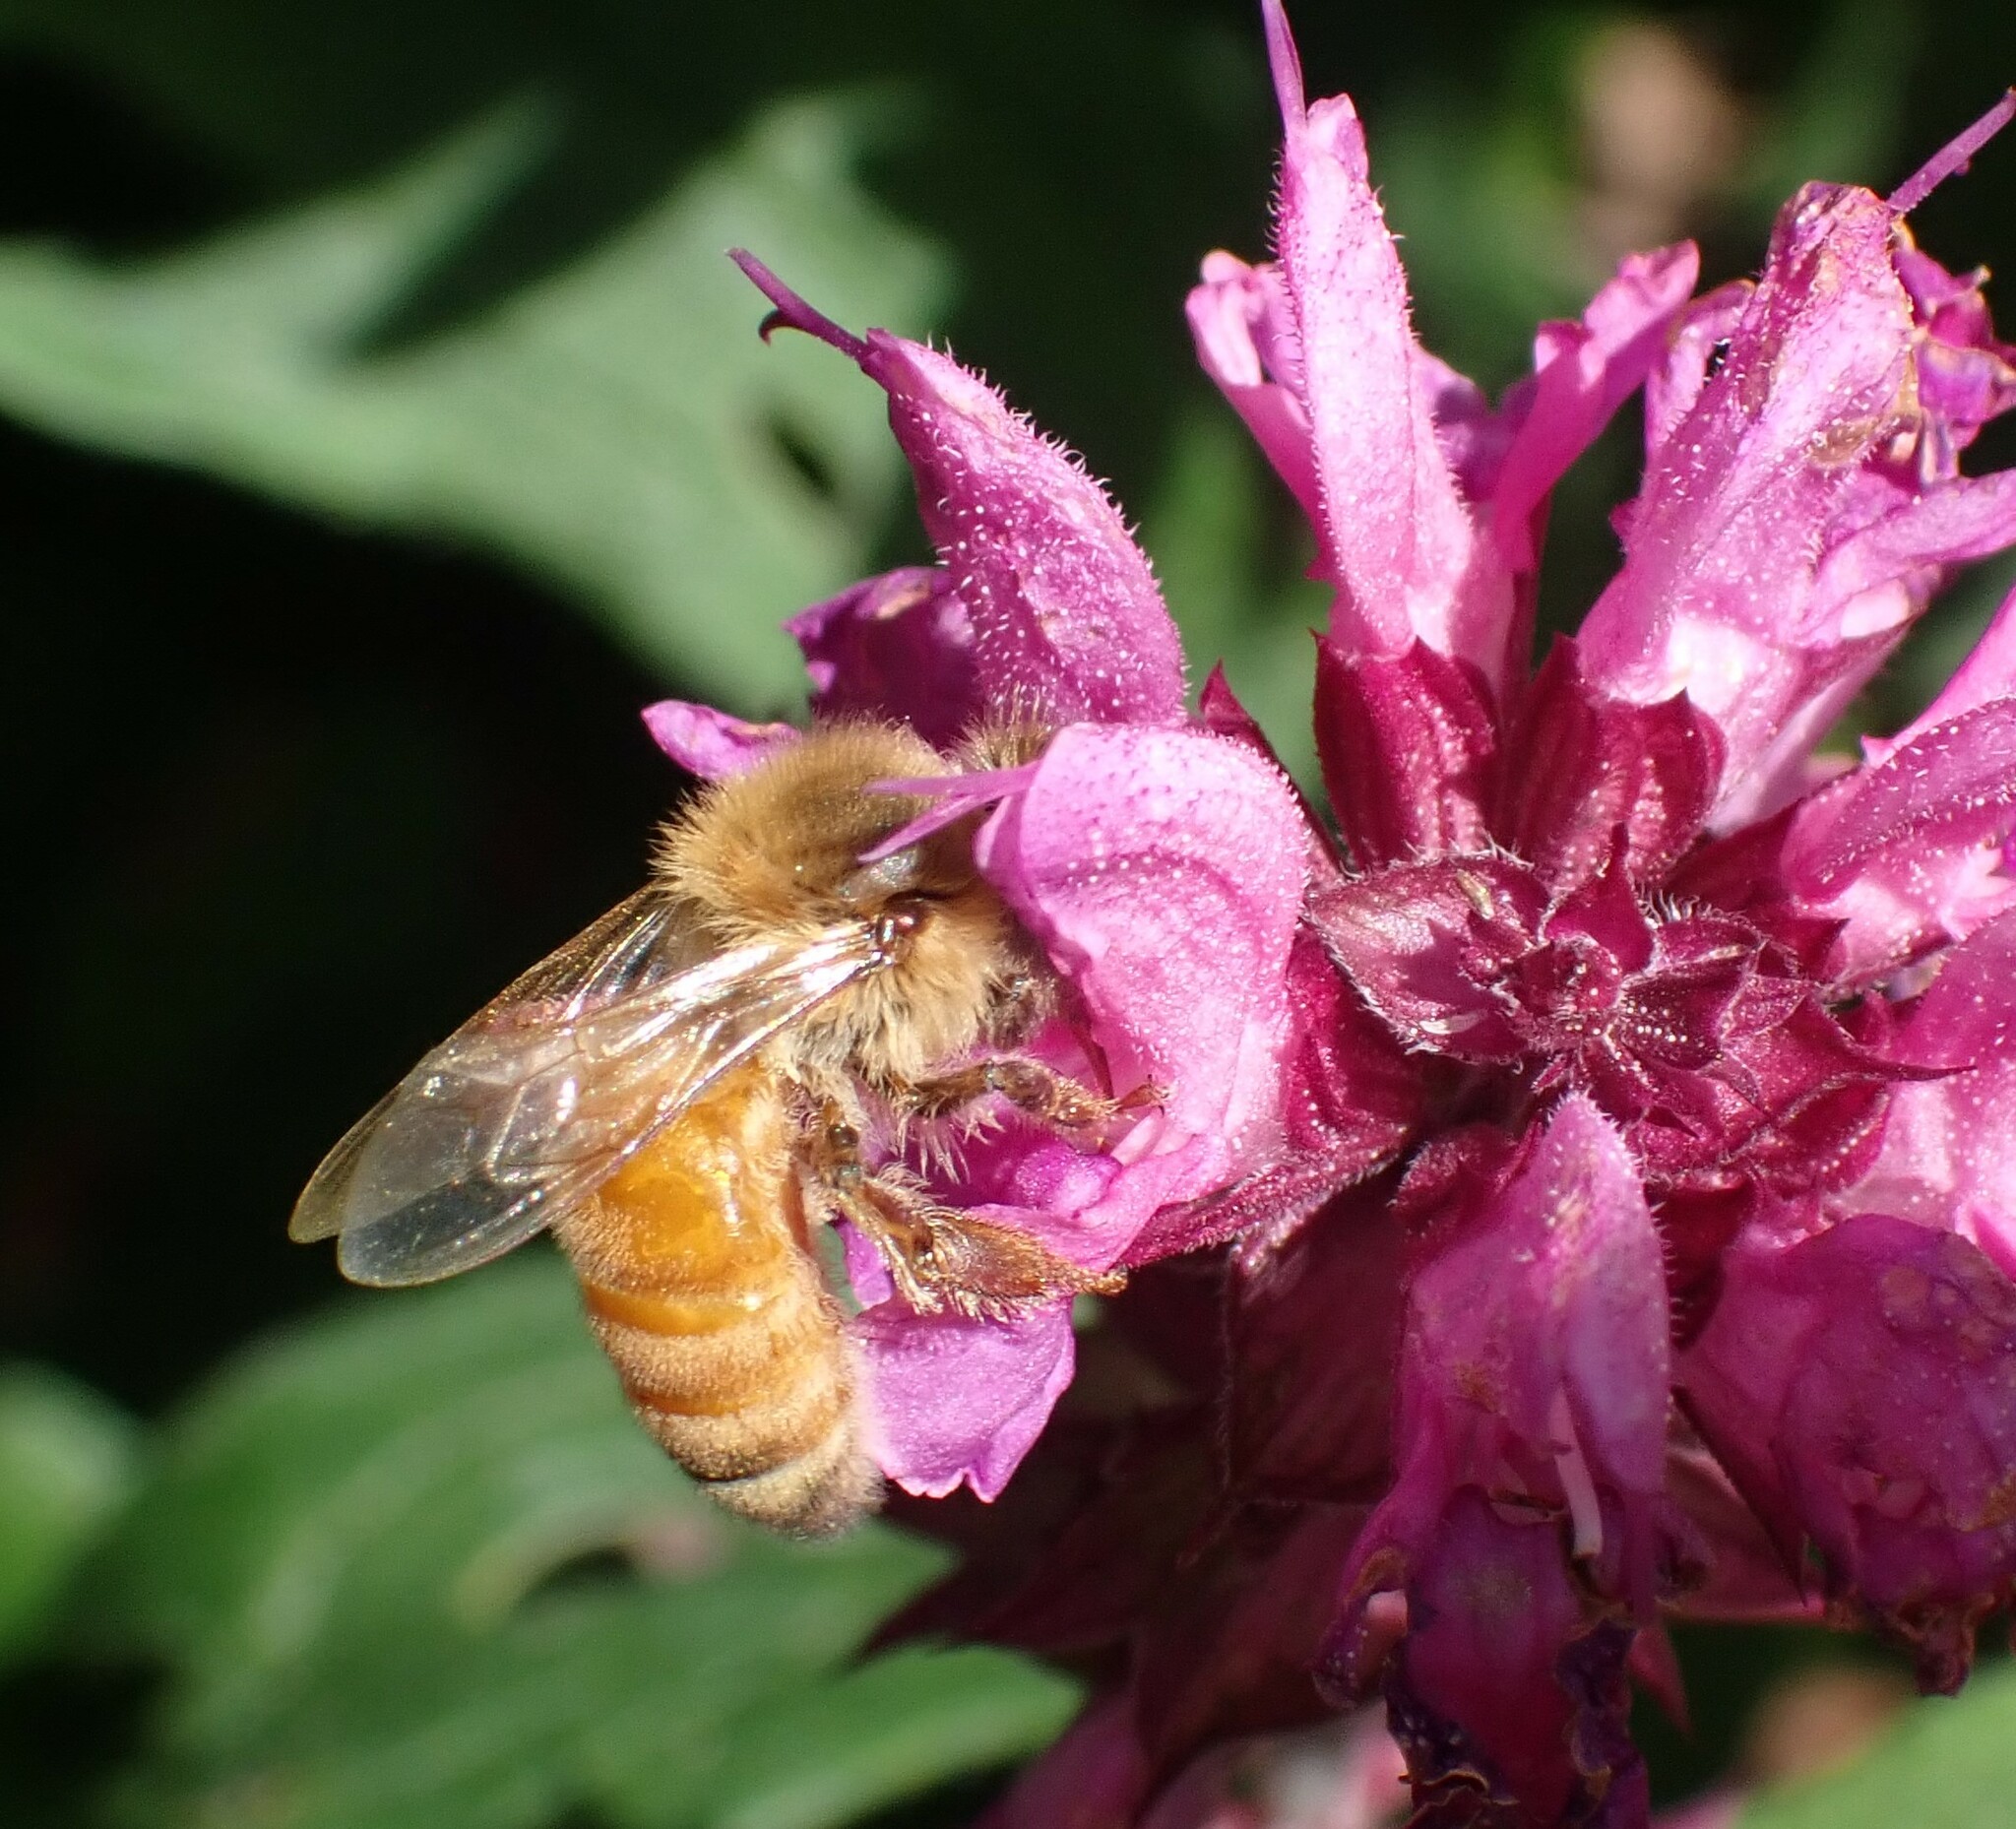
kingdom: Animalia
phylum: Arthropoda
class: Insecta
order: Hymenoptera
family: Apidae
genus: Apis
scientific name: Apis mellifera
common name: Honey bee
